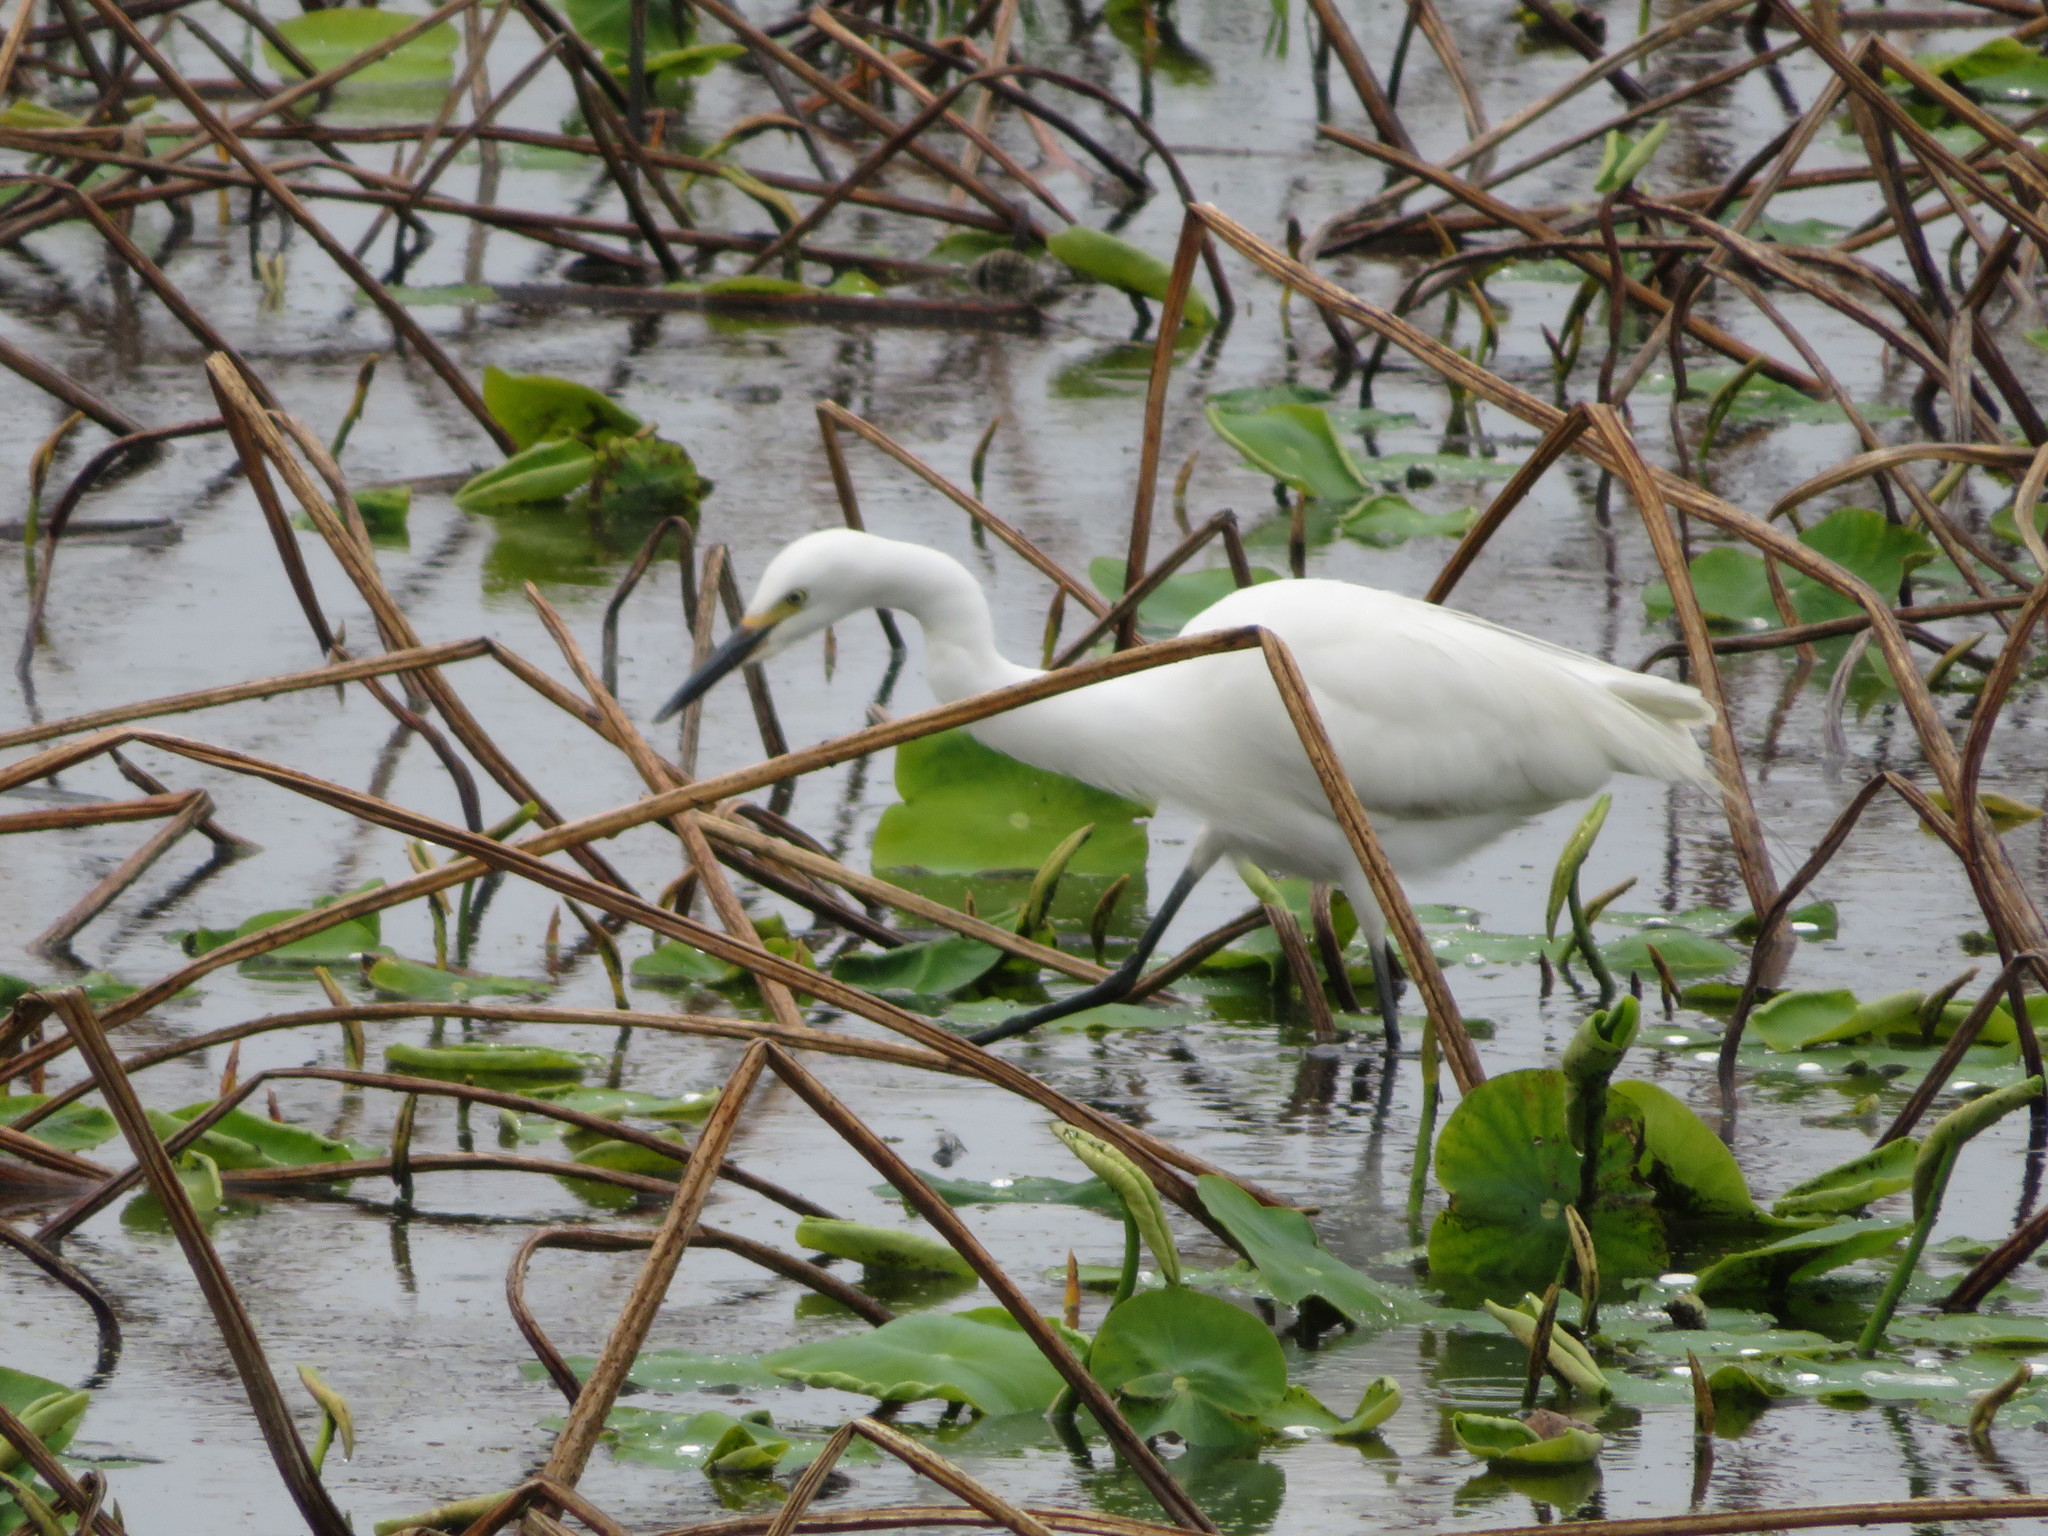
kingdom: Animalia
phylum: Chordata
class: Aves
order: Pelecaniformes
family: Ardeidae
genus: Egretta
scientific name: Egretta garzetta
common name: Little egret
